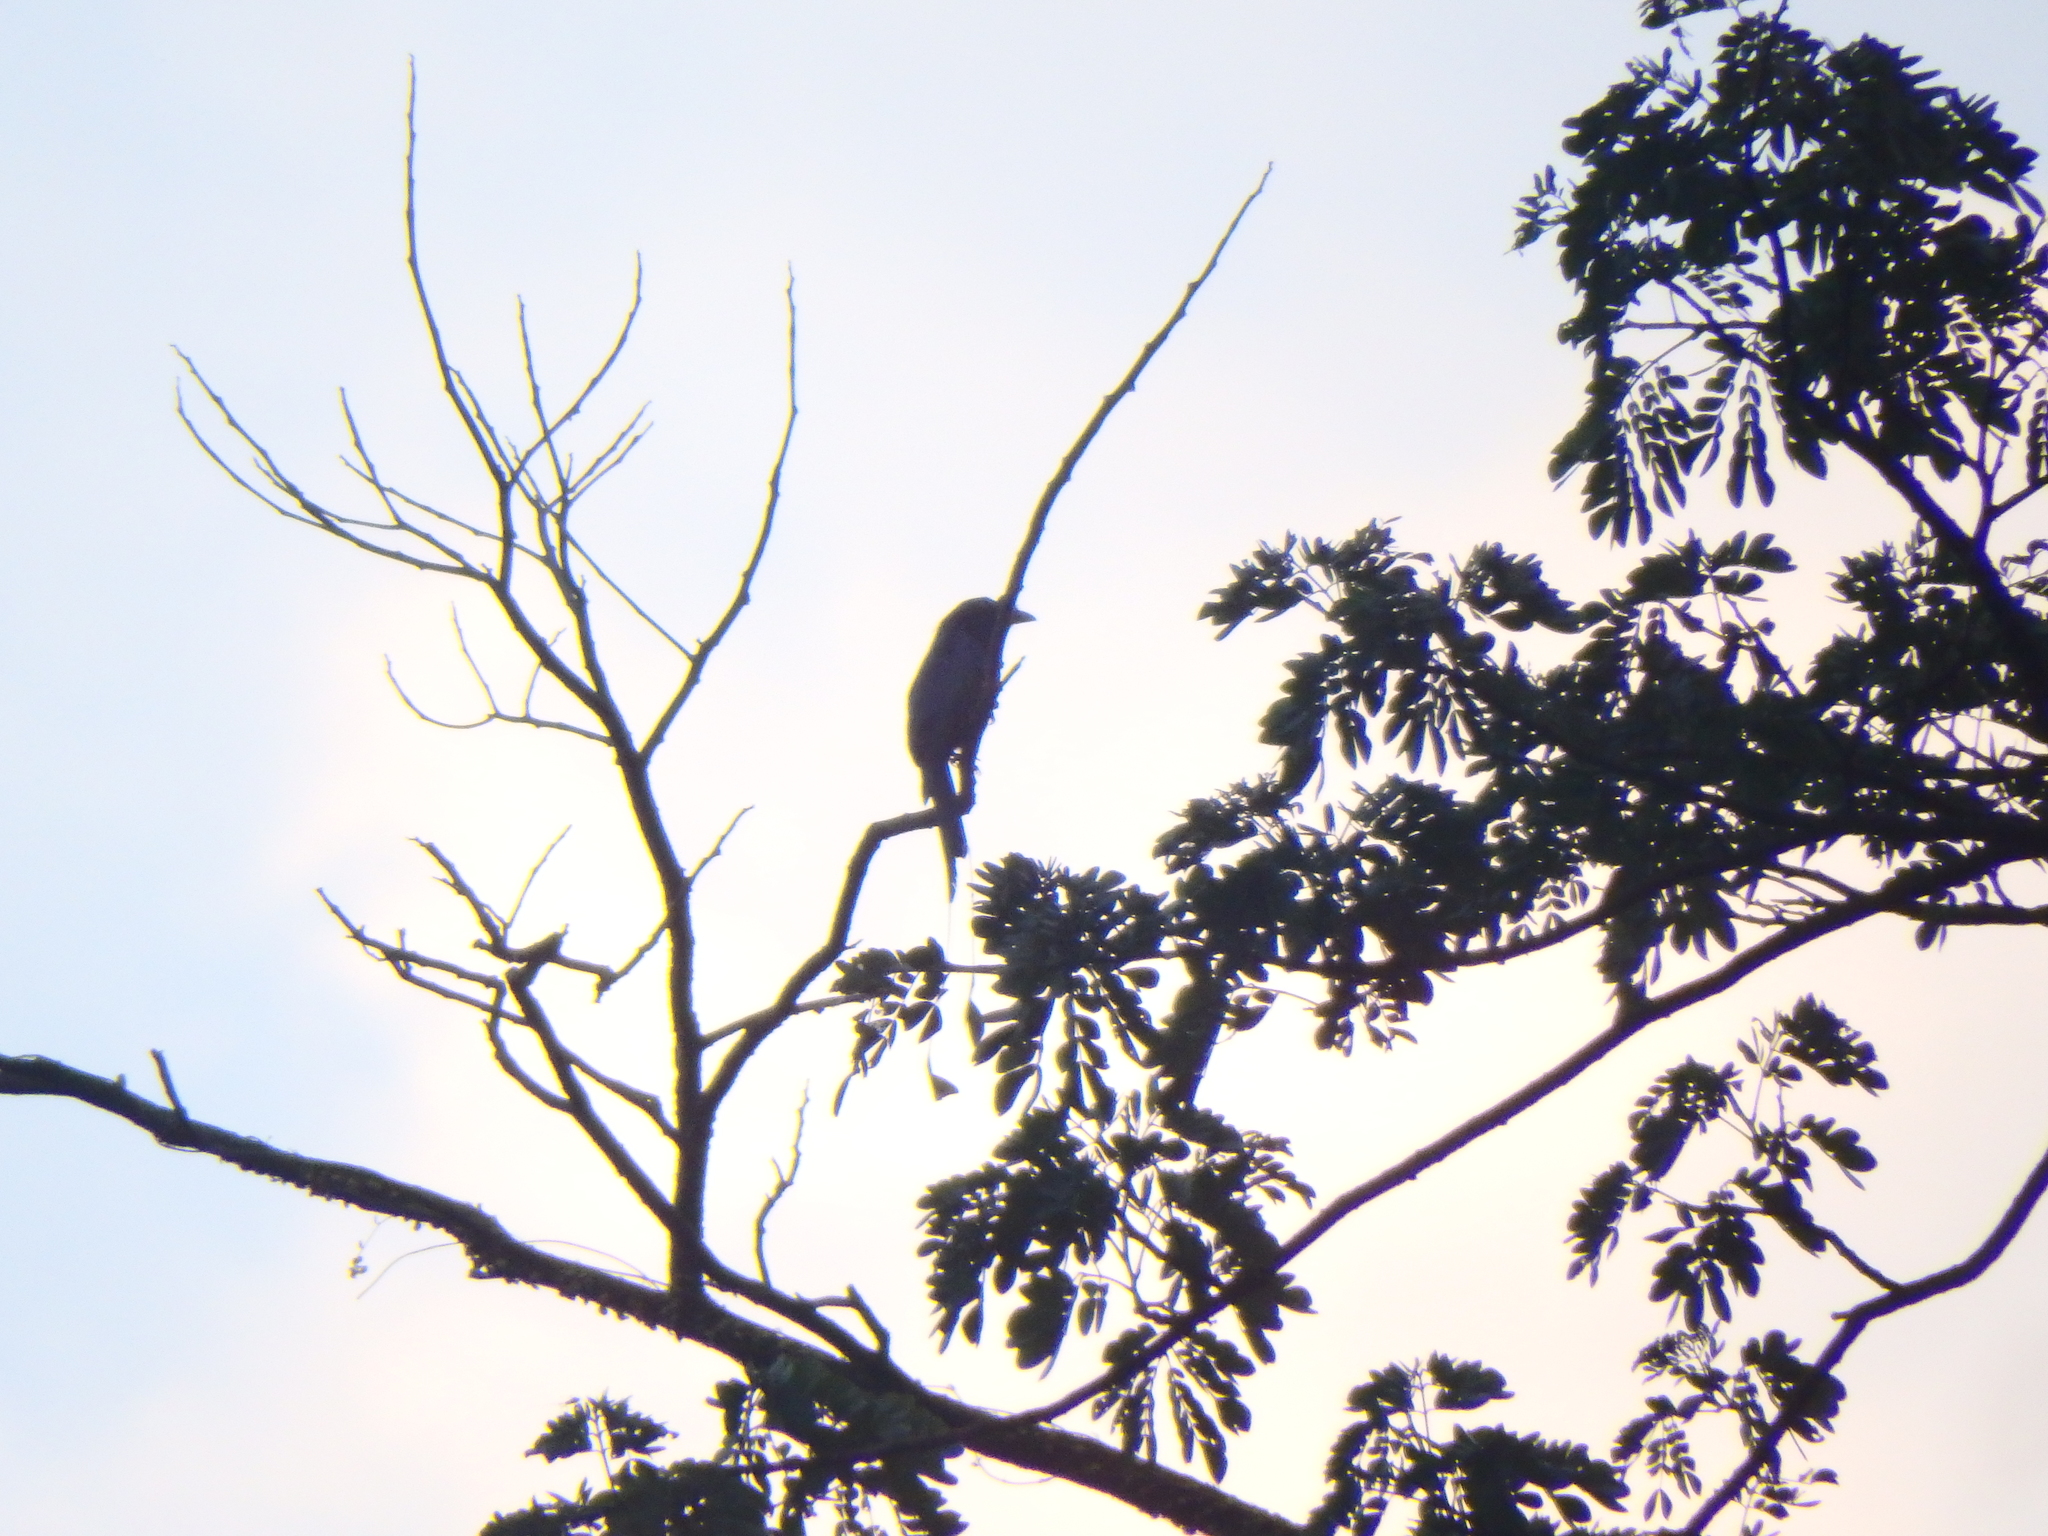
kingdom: Animalia
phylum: Chordata
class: Aves
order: Passeriformes
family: Dicruridae
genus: Dicrurus
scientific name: Dicrurus paradiseus
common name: Greater racket-tailed drongo
